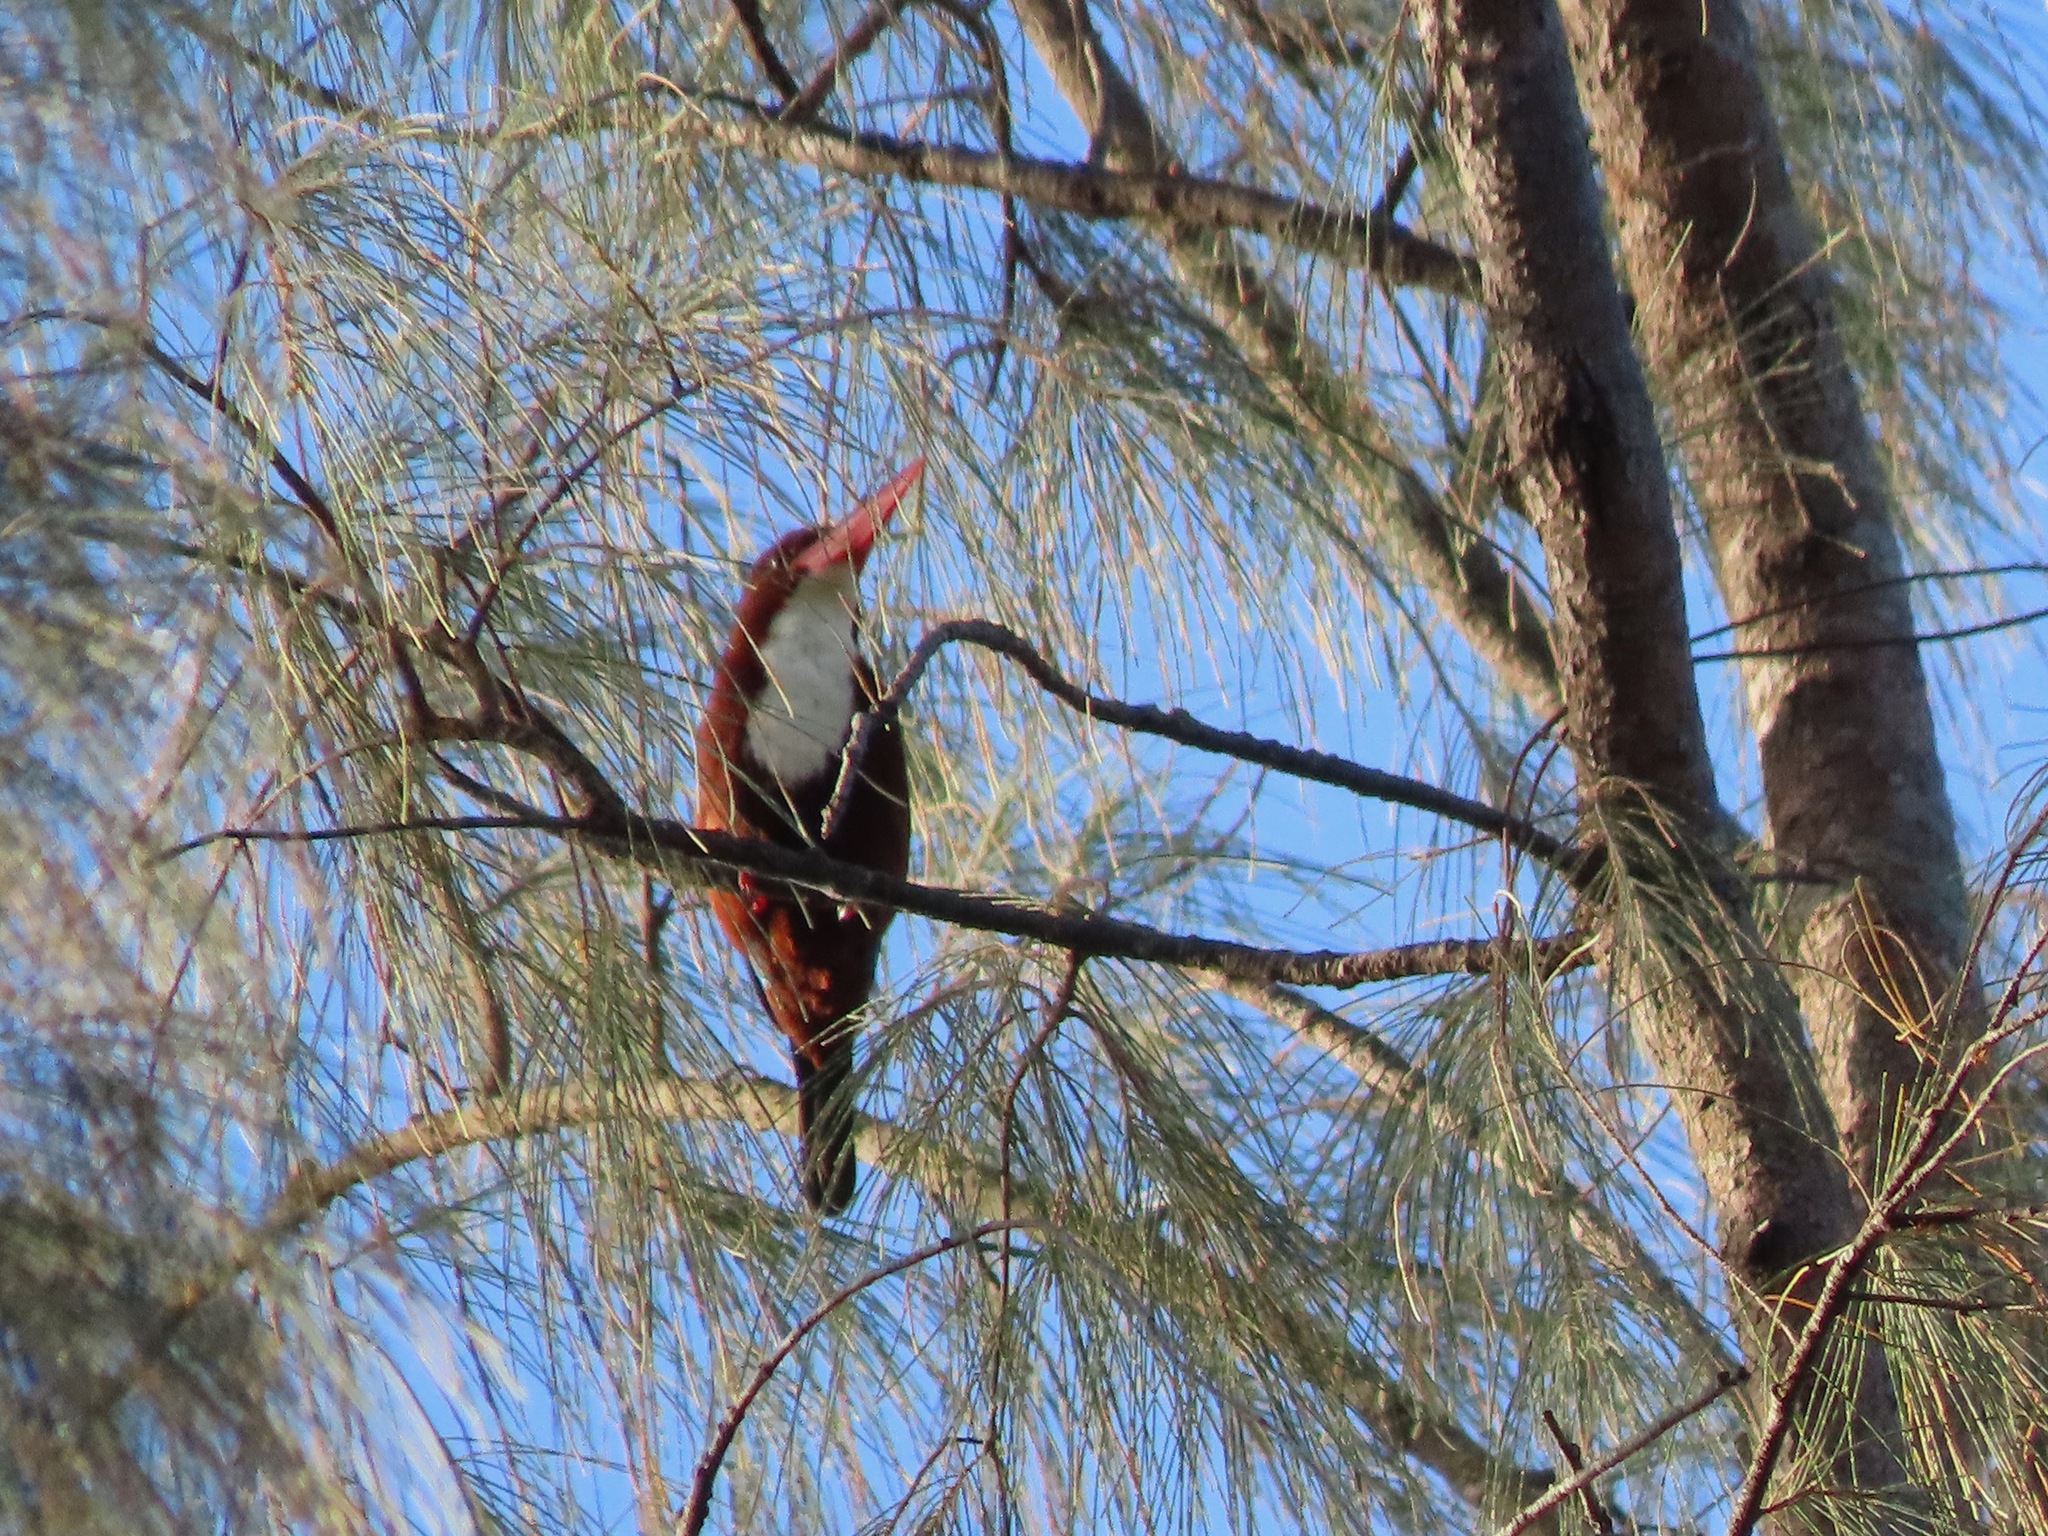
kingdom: Animalia
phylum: Chordata
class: Aves
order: Coraciiformes
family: Alcedinidae
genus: Halcyon
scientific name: Halcyon smyrnensis
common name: White-throated kingfisher
